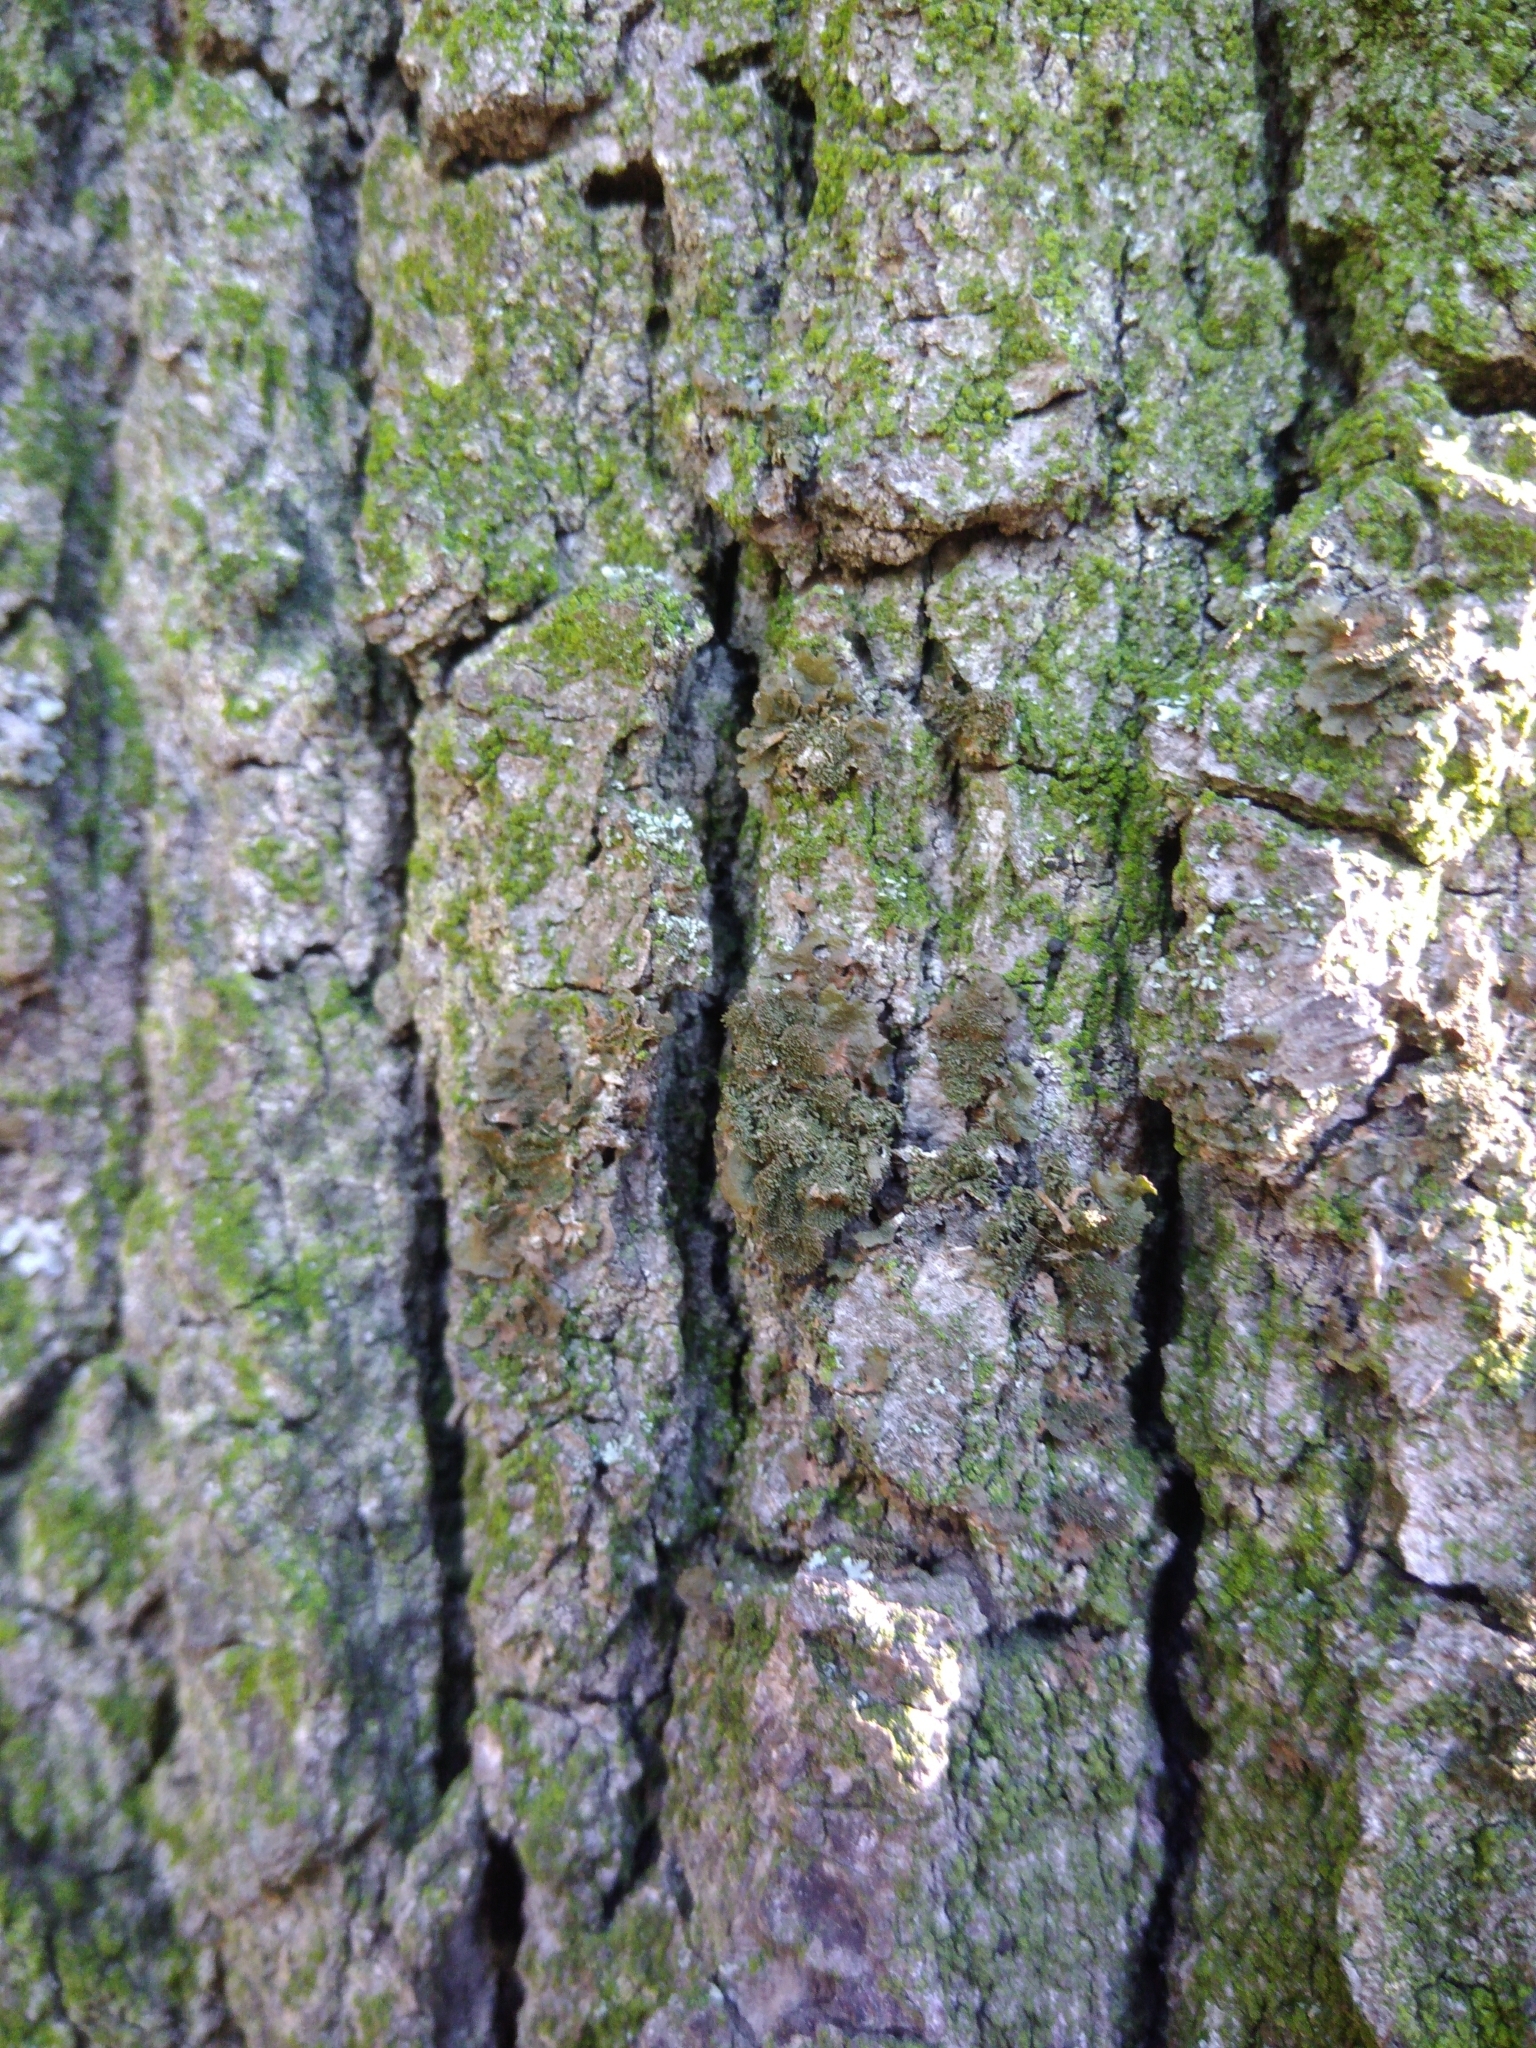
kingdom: Fungi
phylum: Ascomycota
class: Lecanoromycetes
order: Lecanorales
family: Parmeliaceae
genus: Melanohalea
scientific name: Melanohalea exasperatula
